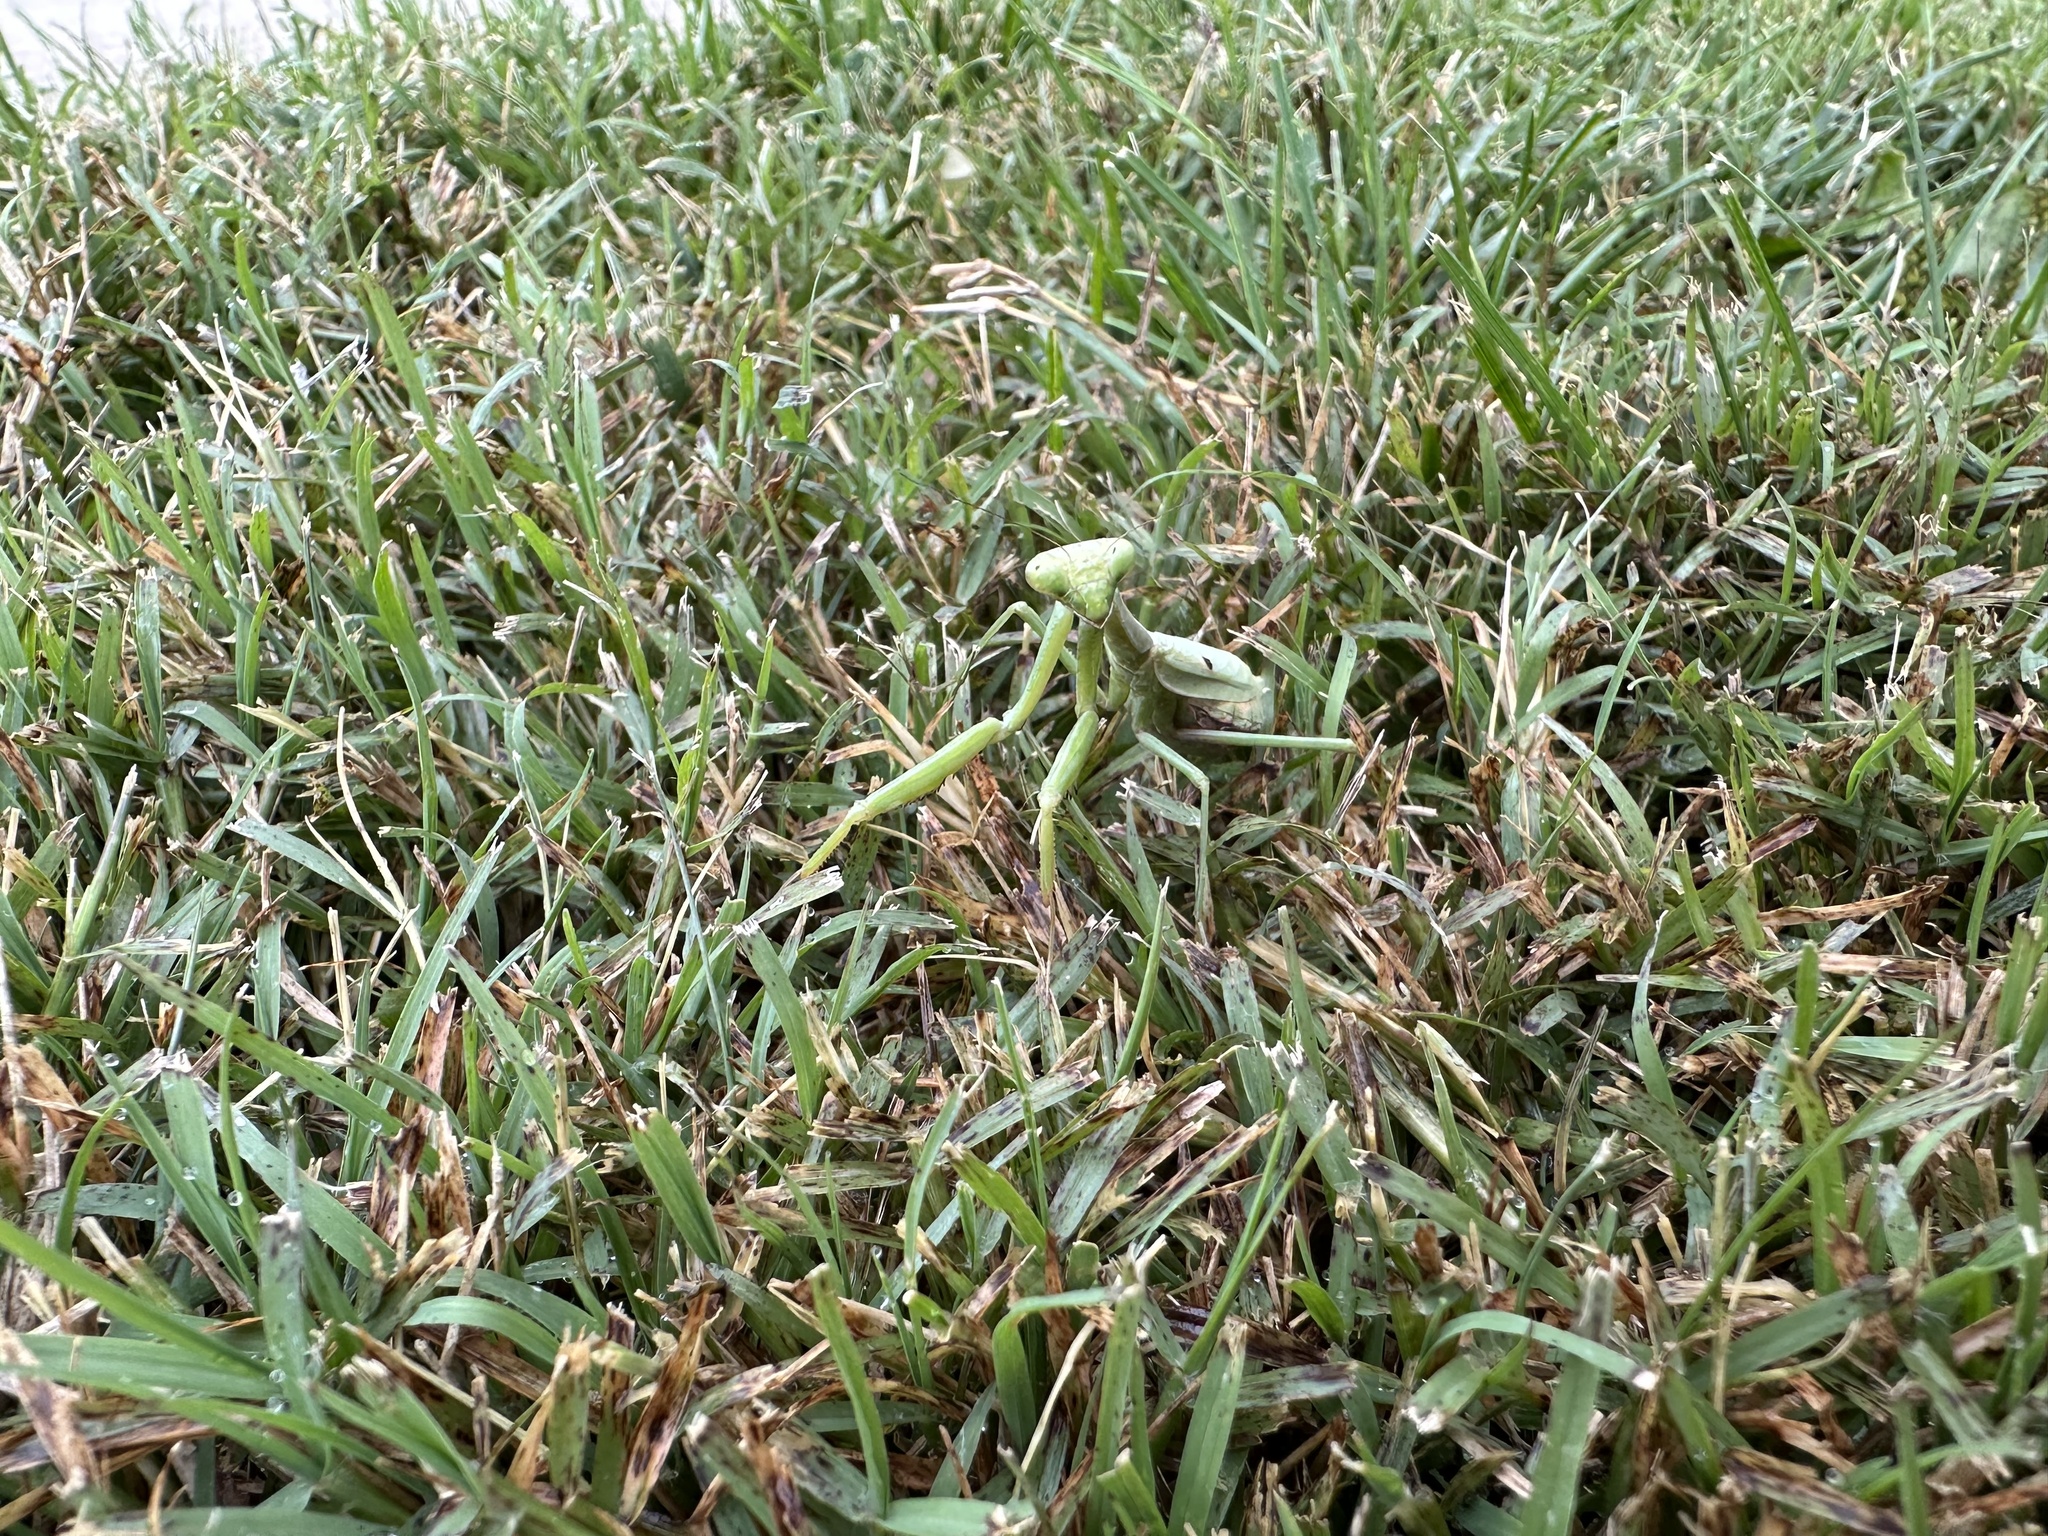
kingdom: Animalia
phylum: Arthropoda
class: Insecta
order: Mantodea
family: Mantidae
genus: Stagmomantis
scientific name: Stagmomantis carolina
